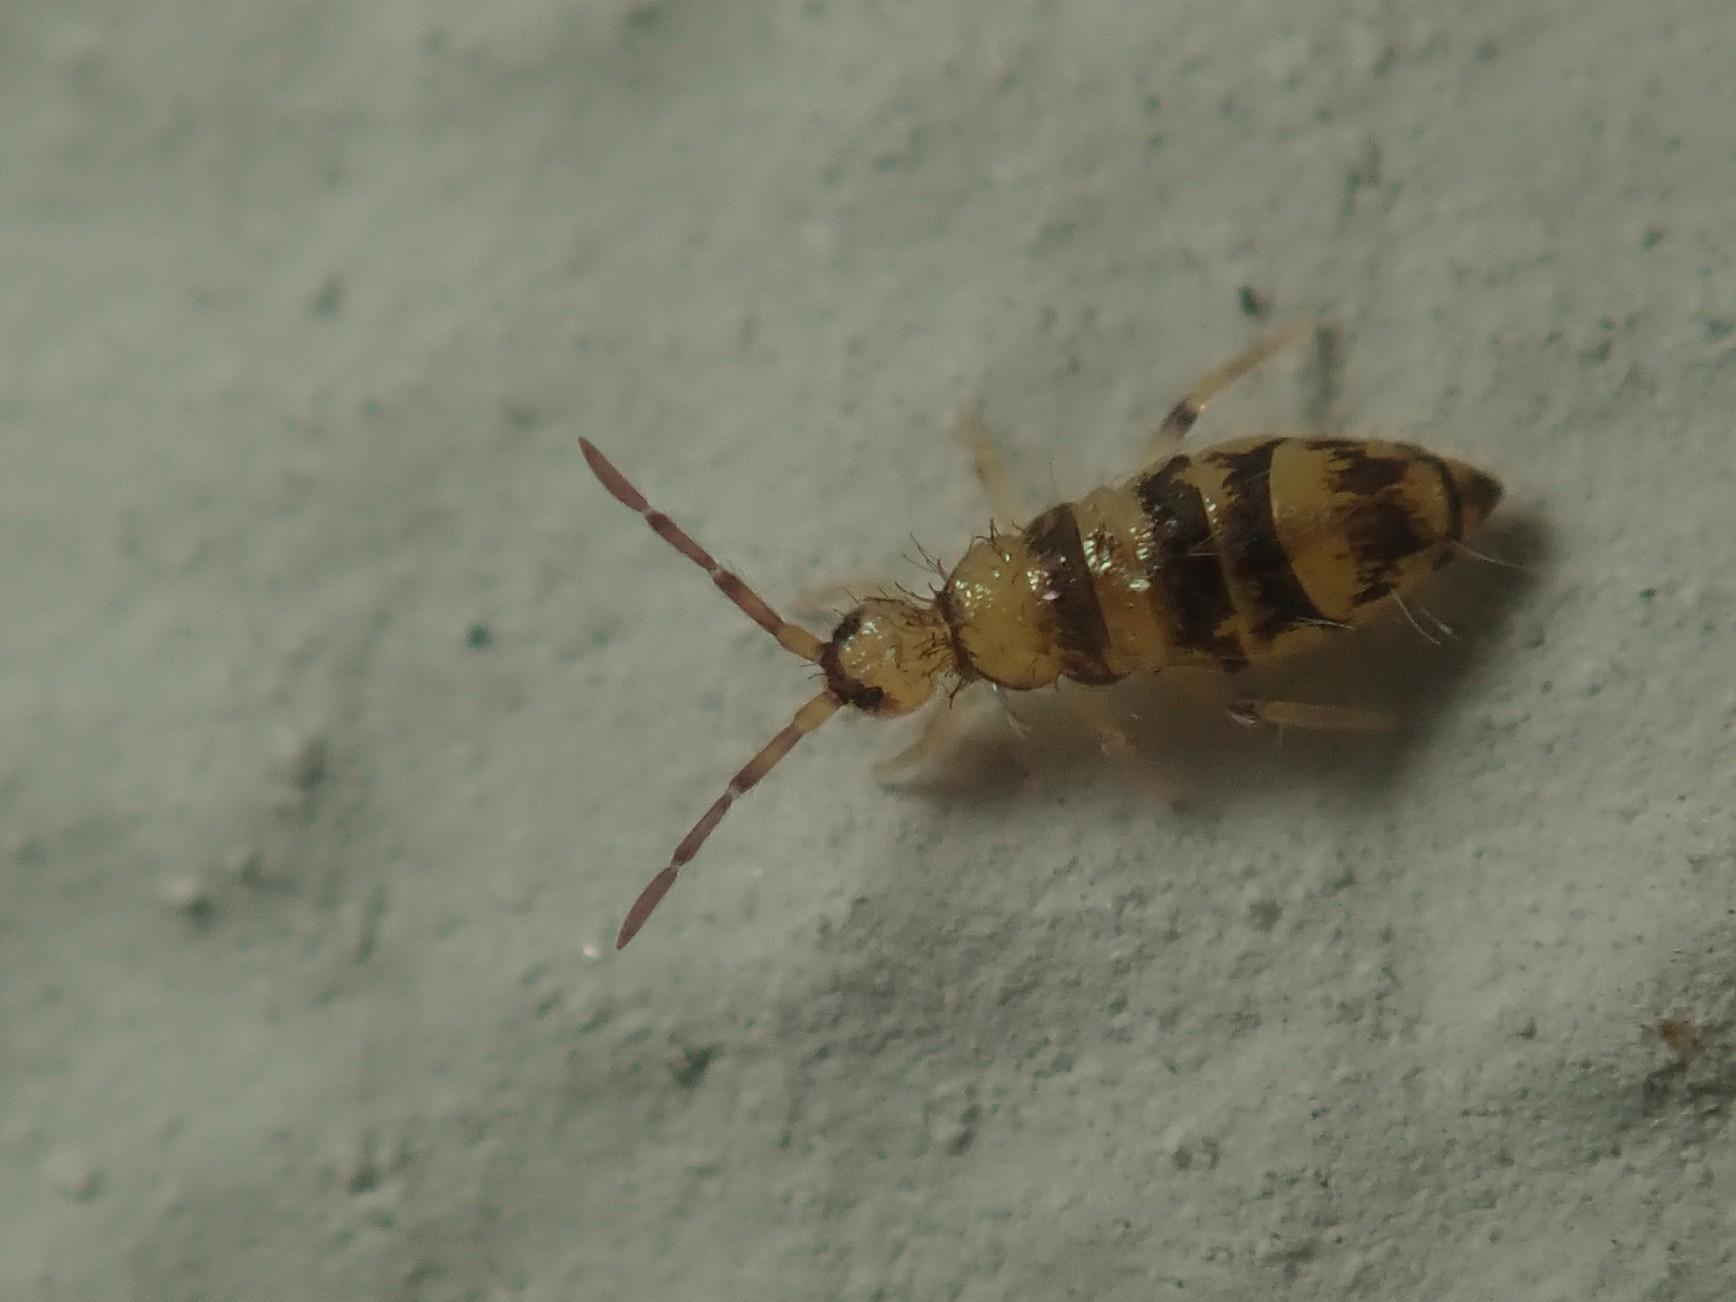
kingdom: Animalia
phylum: Arthropoda
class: Collembola
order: Entomobryomorpha
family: Entomobryidae
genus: Willowsia
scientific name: Willowsia platani
